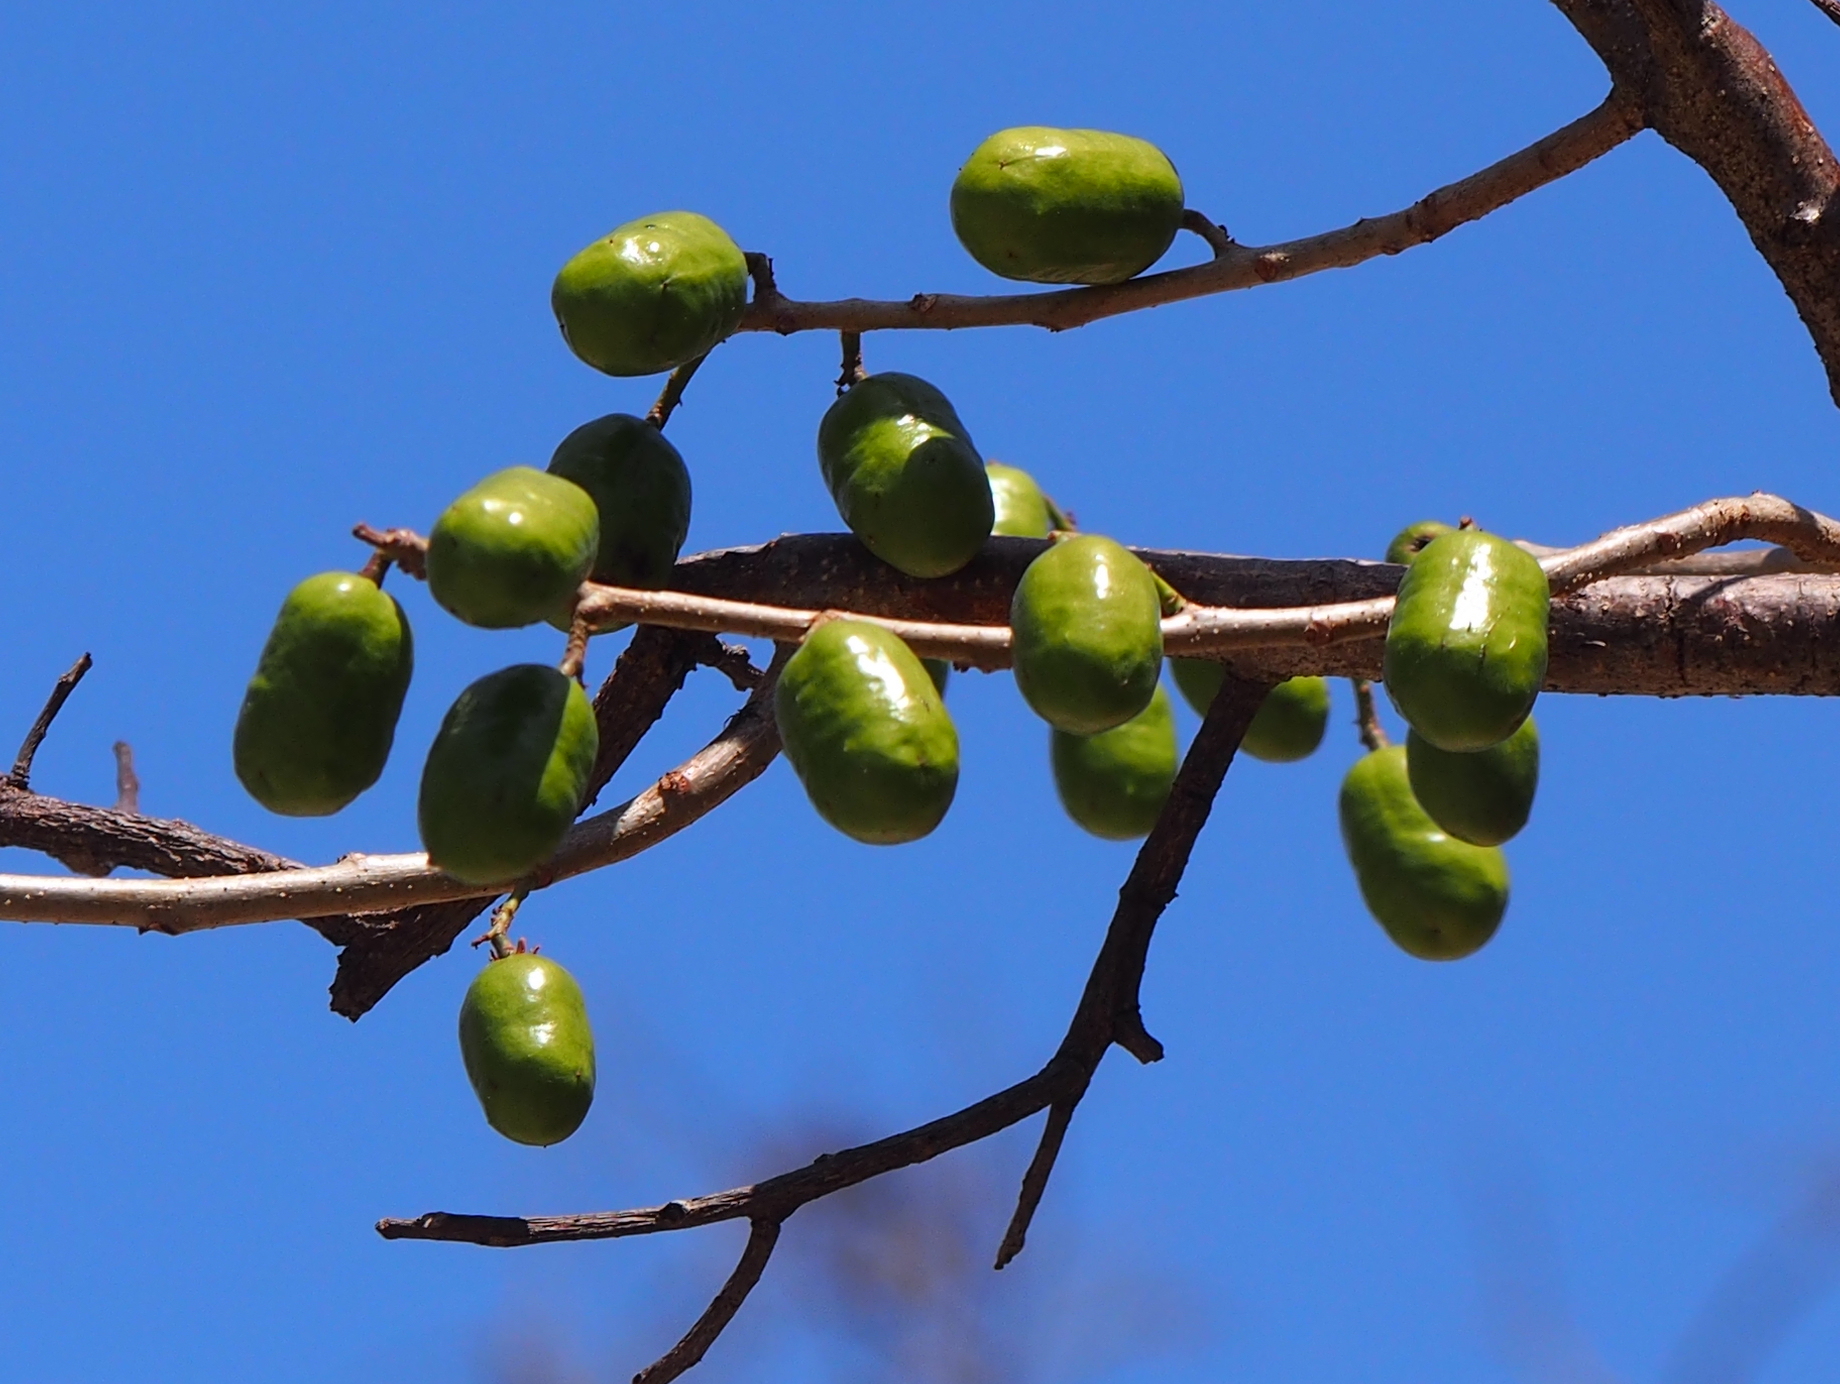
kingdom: Plantae
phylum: Tracheophyta
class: Magnoliopsida
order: Sapindales
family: Anacardiaceae
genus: Spondias
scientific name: Spondias purpurea
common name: Purple mombin
